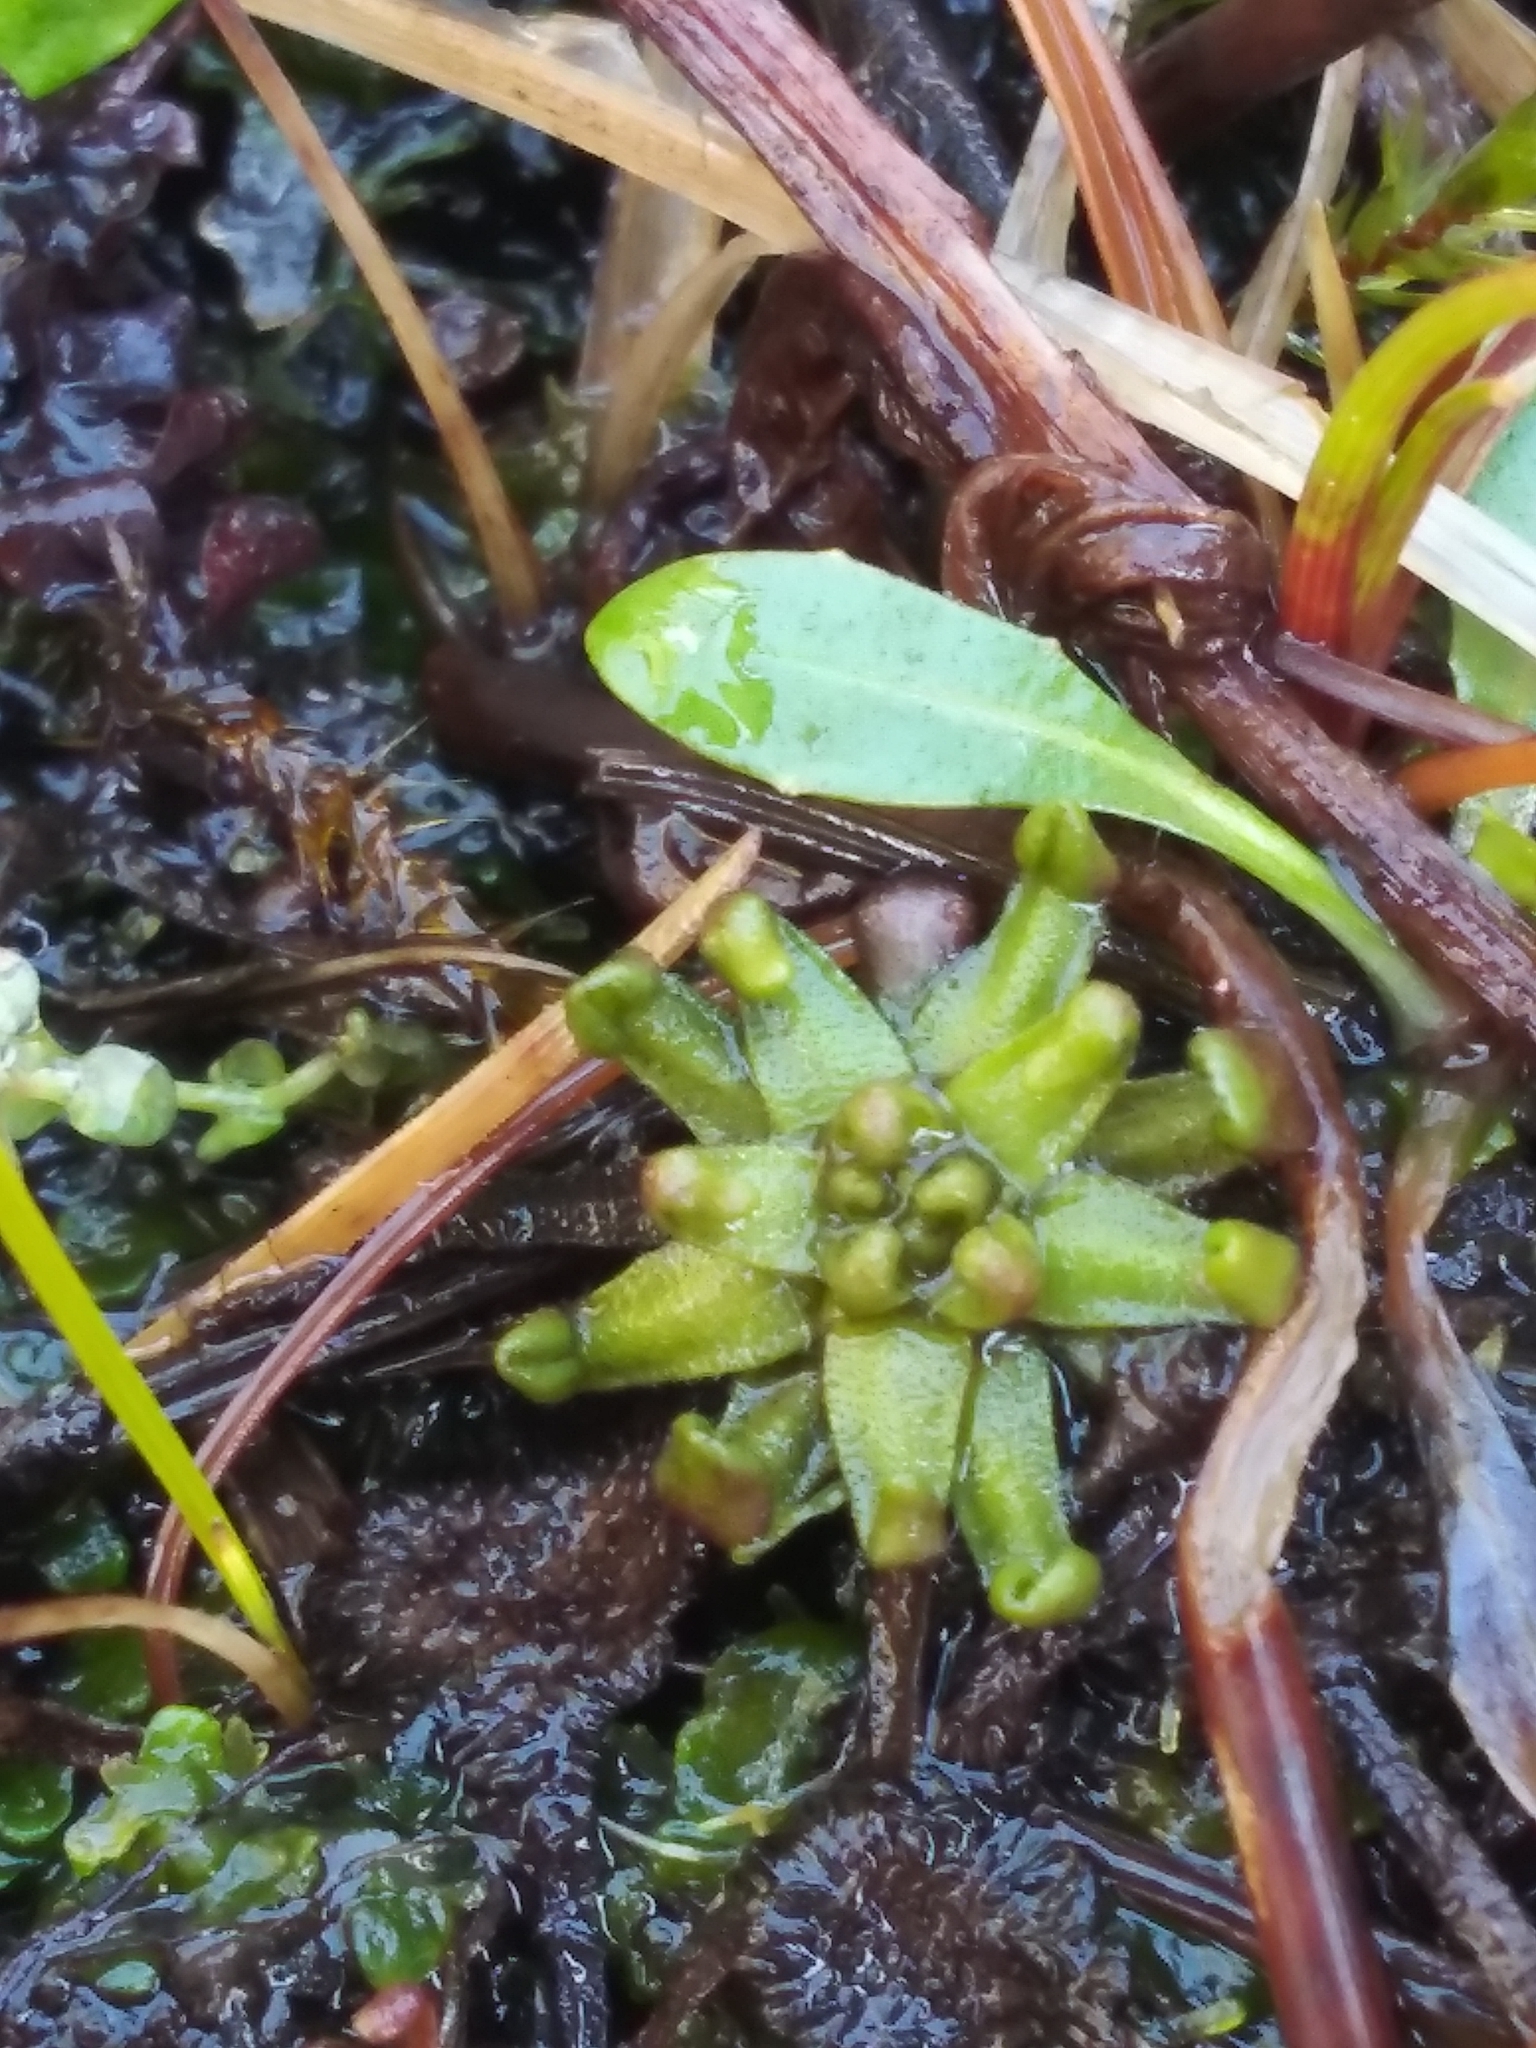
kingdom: Plantae
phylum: Tracheophyta
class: Magnoliopsida
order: Caryophyllales
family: Droseraceae
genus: Drosera
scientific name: Drosera rotundifolia
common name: Round-leaved sundew
